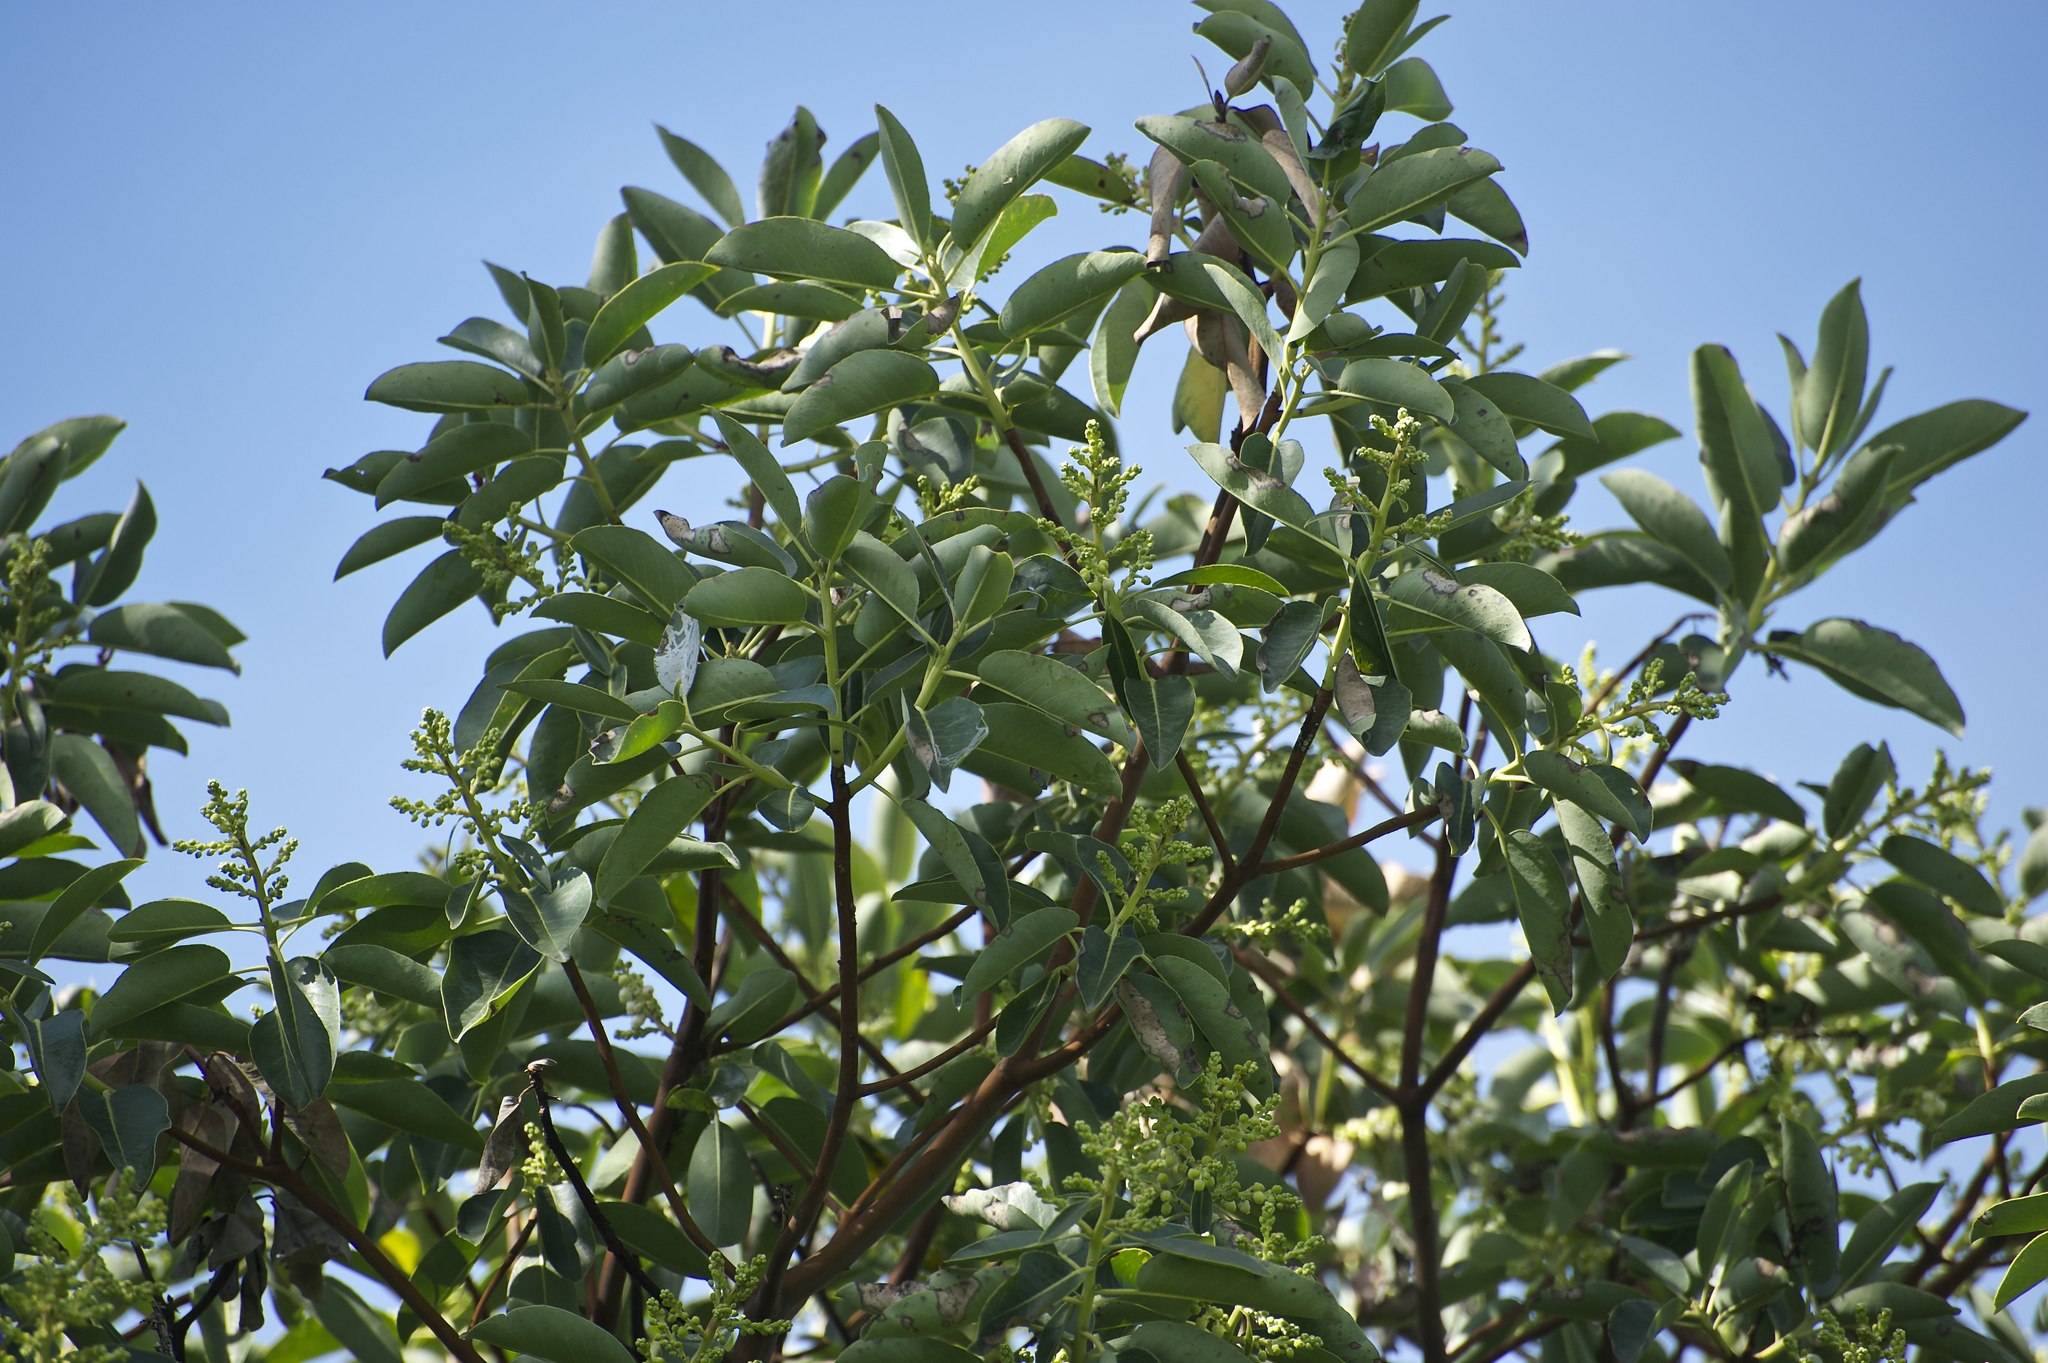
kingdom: Plantae
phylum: Tracheophyta
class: Magnoliopsida
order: Ericales
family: Ericaceae
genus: Arbutus
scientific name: Arbutus menziesii
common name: Pacific madrone
